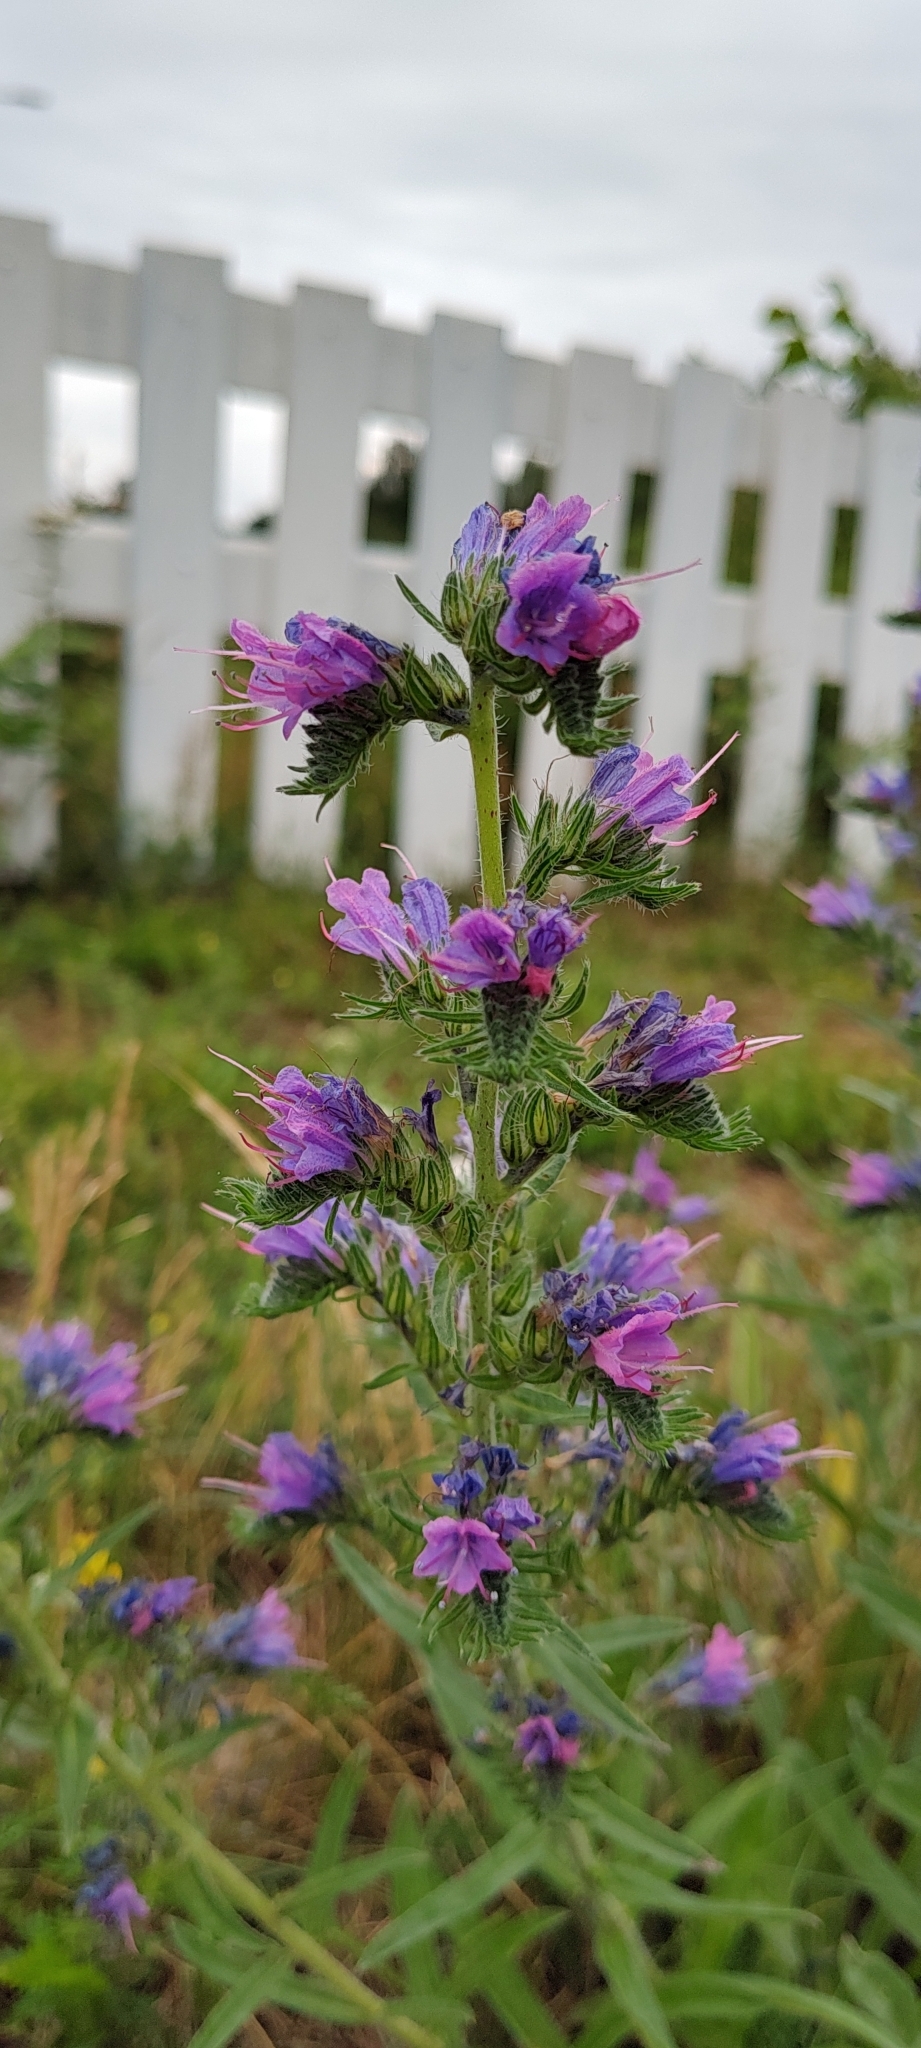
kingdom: Plantae
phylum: Tracheophyta
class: Magnoliopsida
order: Boraginales
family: Boraginaceae
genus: Echium
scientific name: Echium vulgare
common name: Common viper's bugloss
